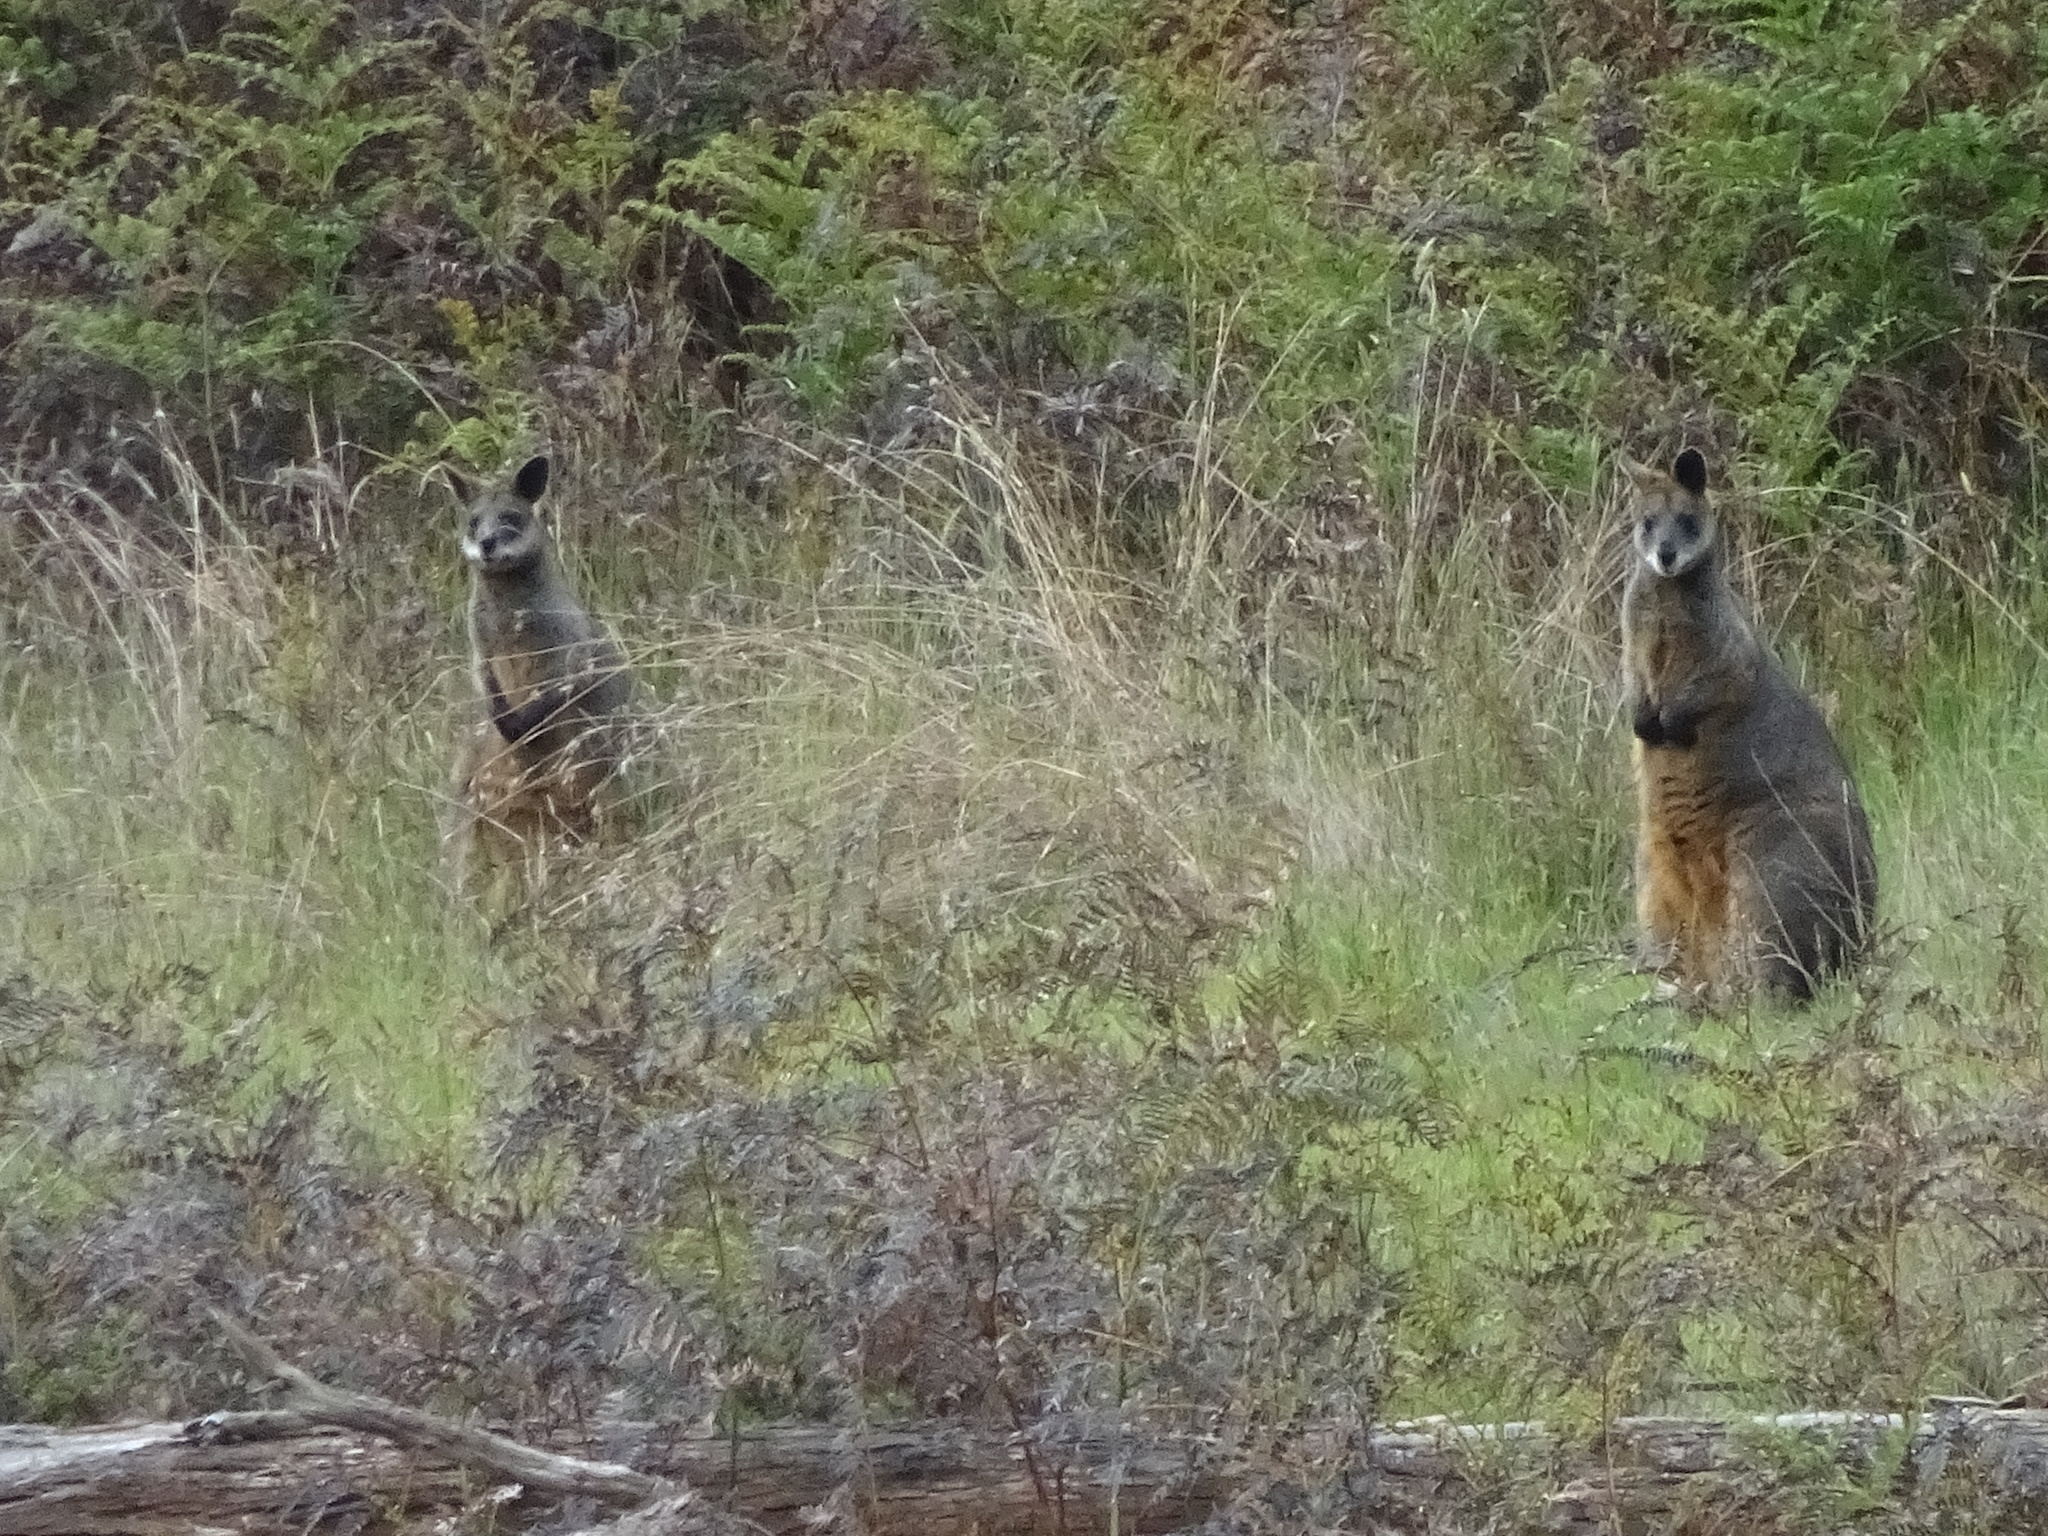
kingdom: Animalia
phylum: Chordata
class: Mammalia
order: Diprotodontia
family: Macropodidae
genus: Wallabia
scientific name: Wallabia bicolor
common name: Swamp wallaby
